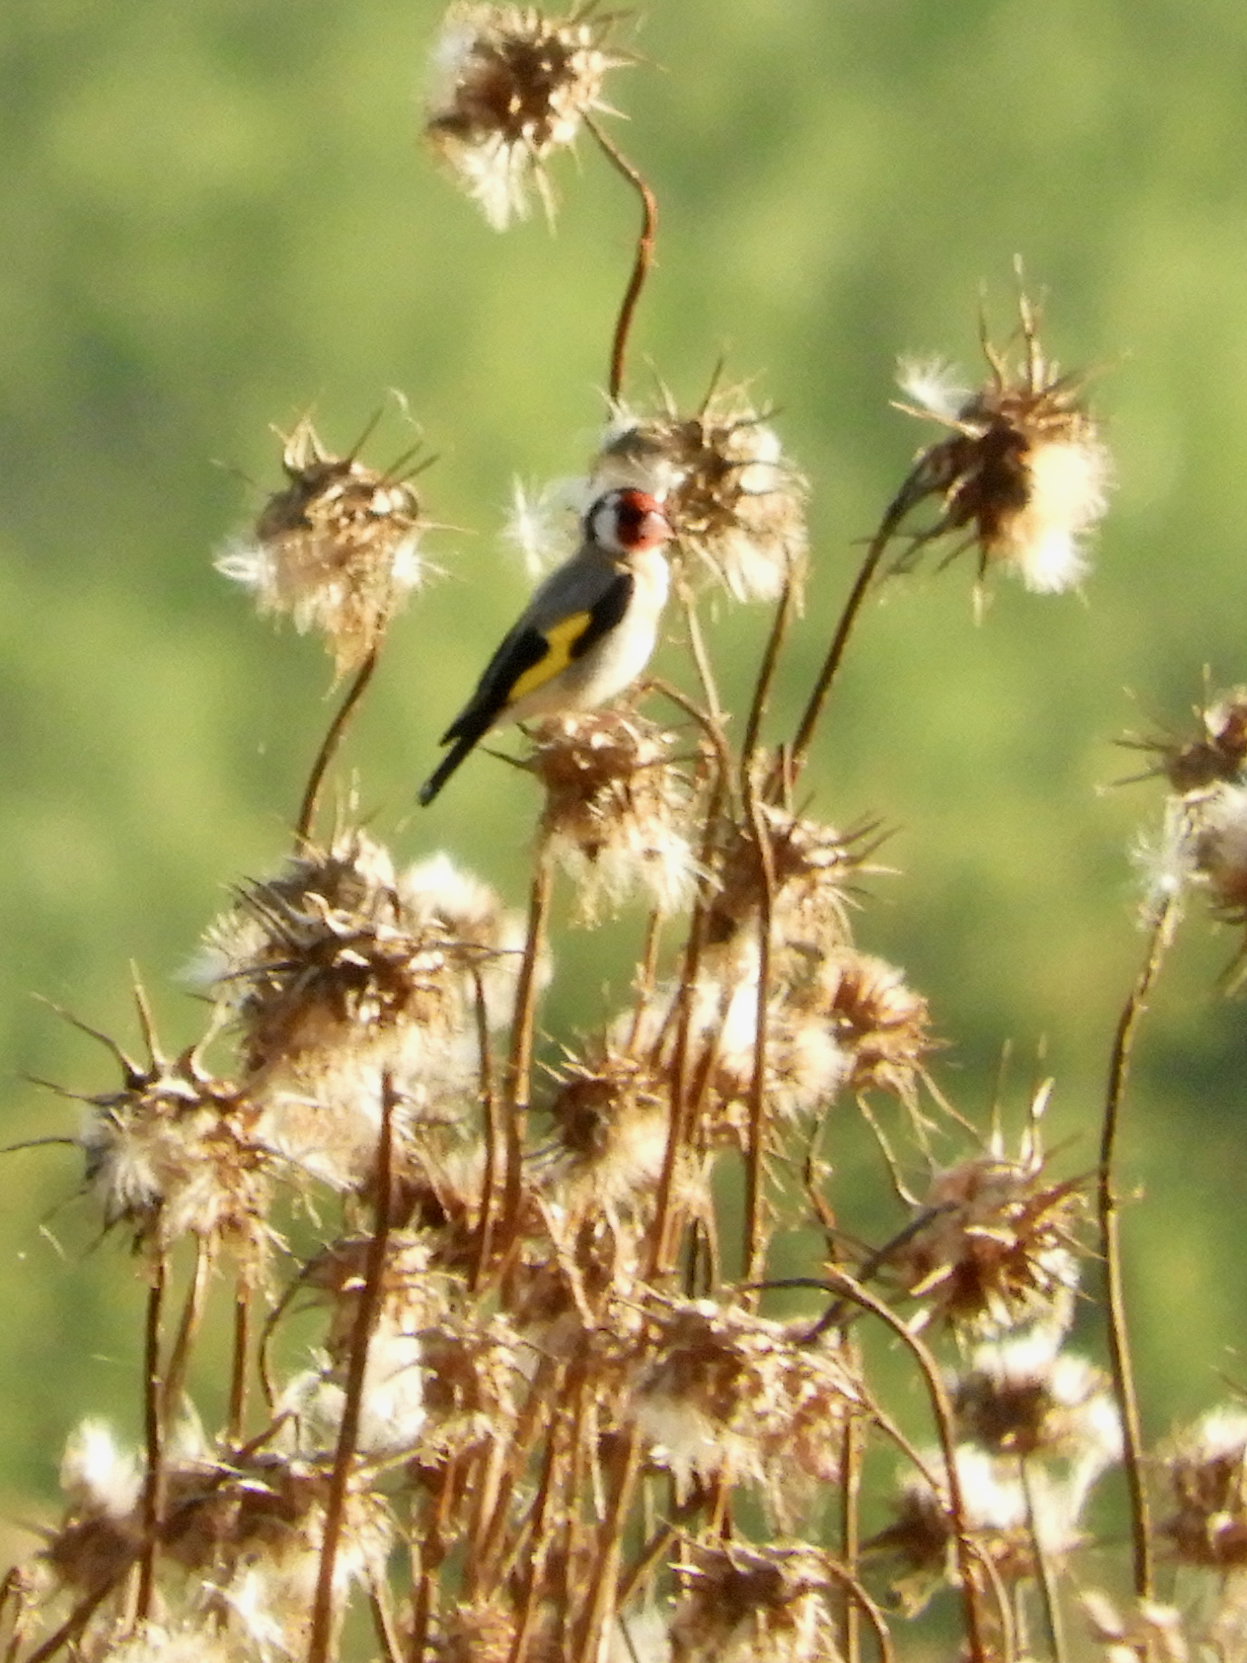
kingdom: Animalia
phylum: Chordata
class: Aves
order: Passeriformes
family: Fringillidae
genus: Carduelis
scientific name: Carduelis carduelis
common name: European goldfinch
